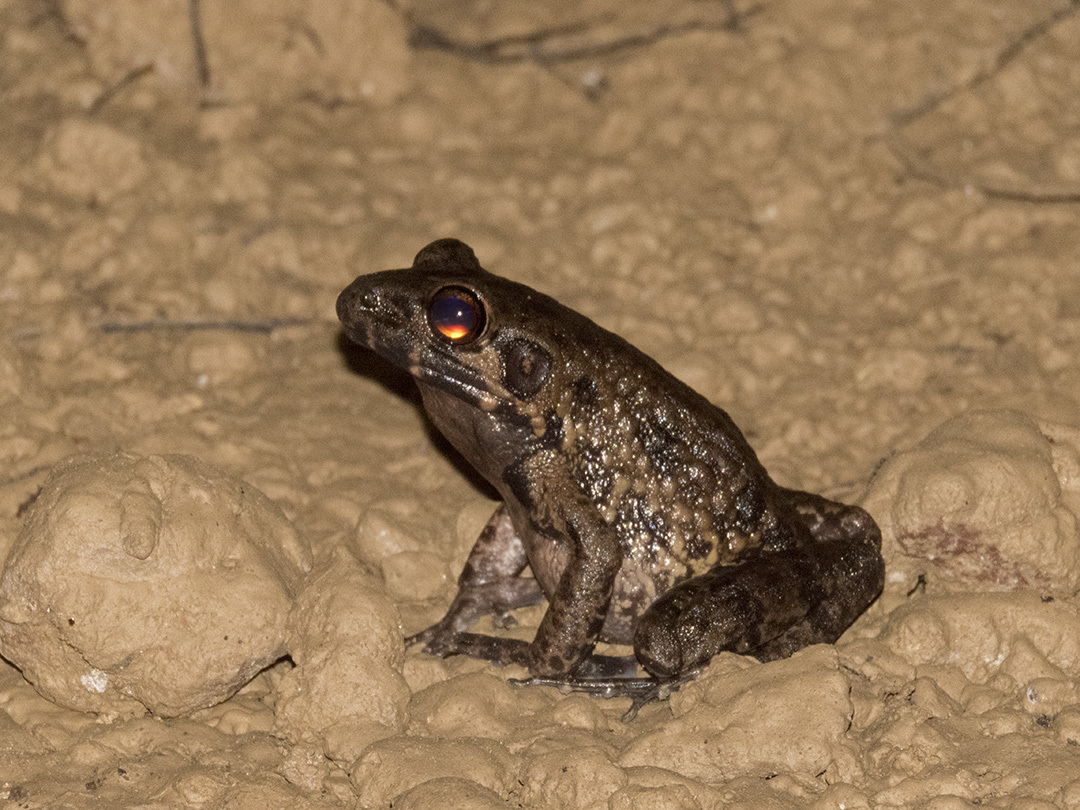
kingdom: Animalia
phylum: Chordata
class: Amphibia
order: Anura
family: Ranidae
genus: Pulchrana
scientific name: Pulchrana glandulosa
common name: Rough-sided frog
